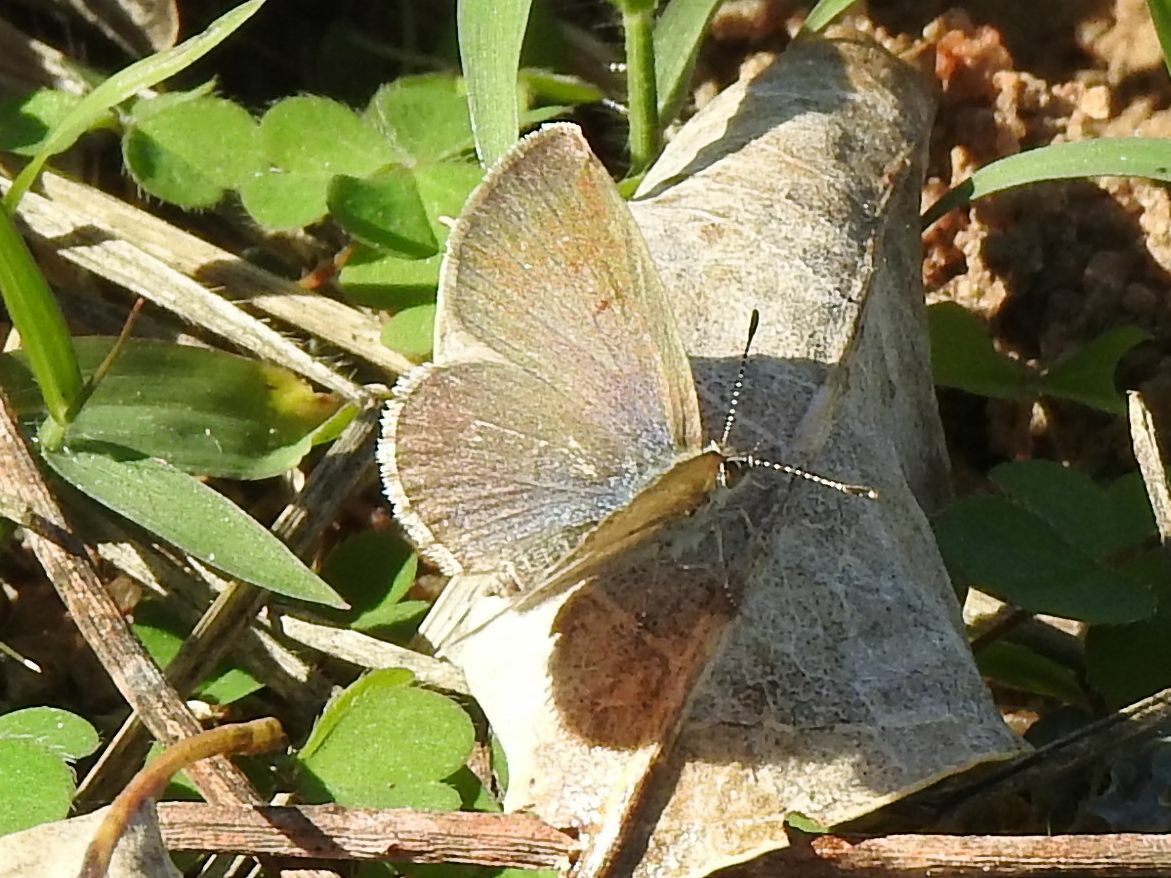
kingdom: Animalia
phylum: Arthropoda
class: Insecta
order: Lepidoptera
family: Lycaenidae
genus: Zizeeria
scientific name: Zizeeria knysna
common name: African grass blue
